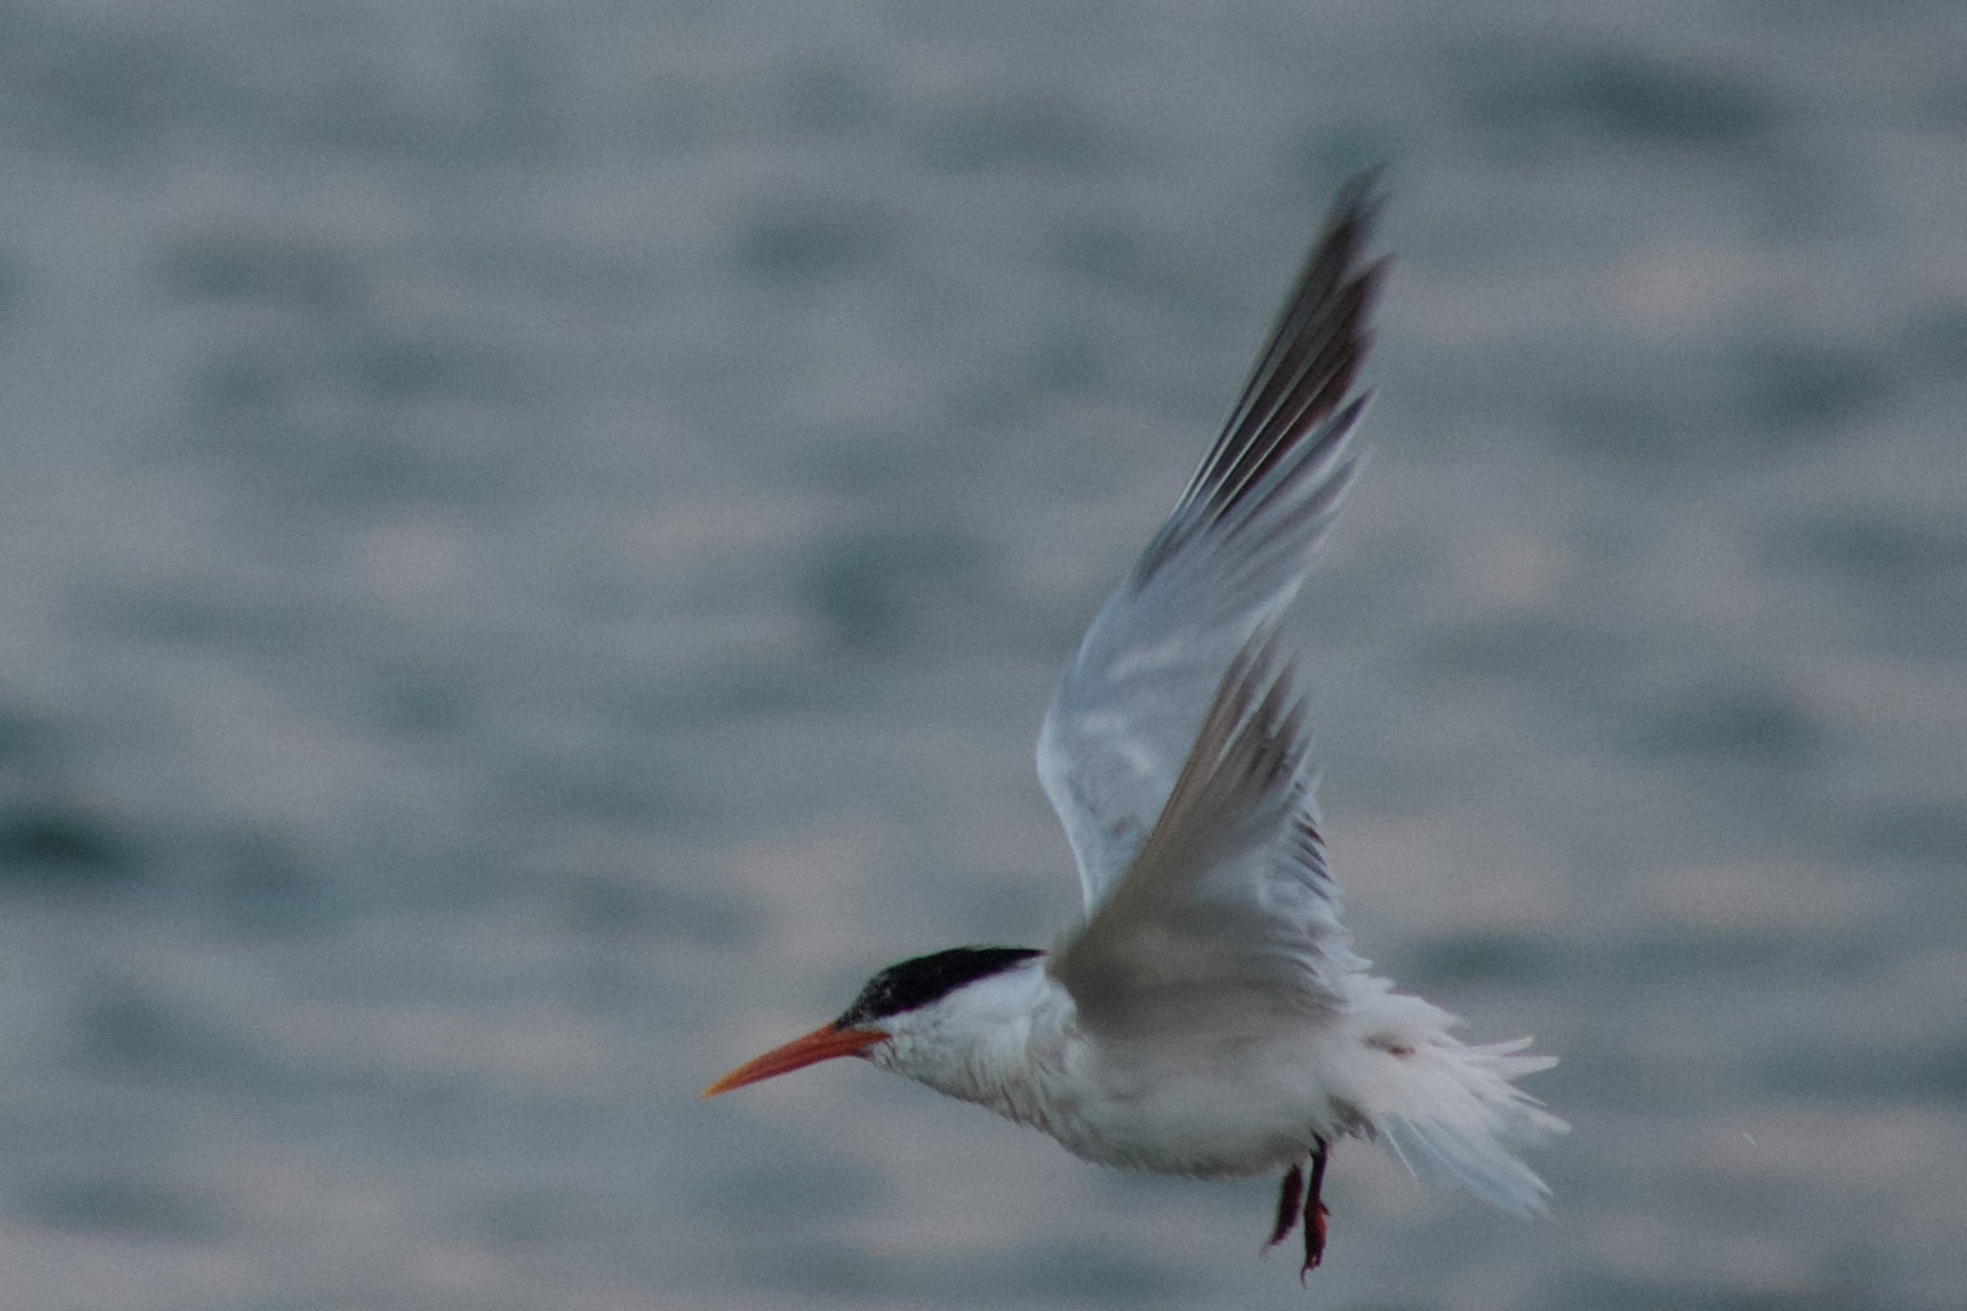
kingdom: Animalia
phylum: Chordata
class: Aves
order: Charadriiformes
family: Laridae
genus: Thalasseus
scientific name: Thalasseus elegans
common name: Elegant tern
